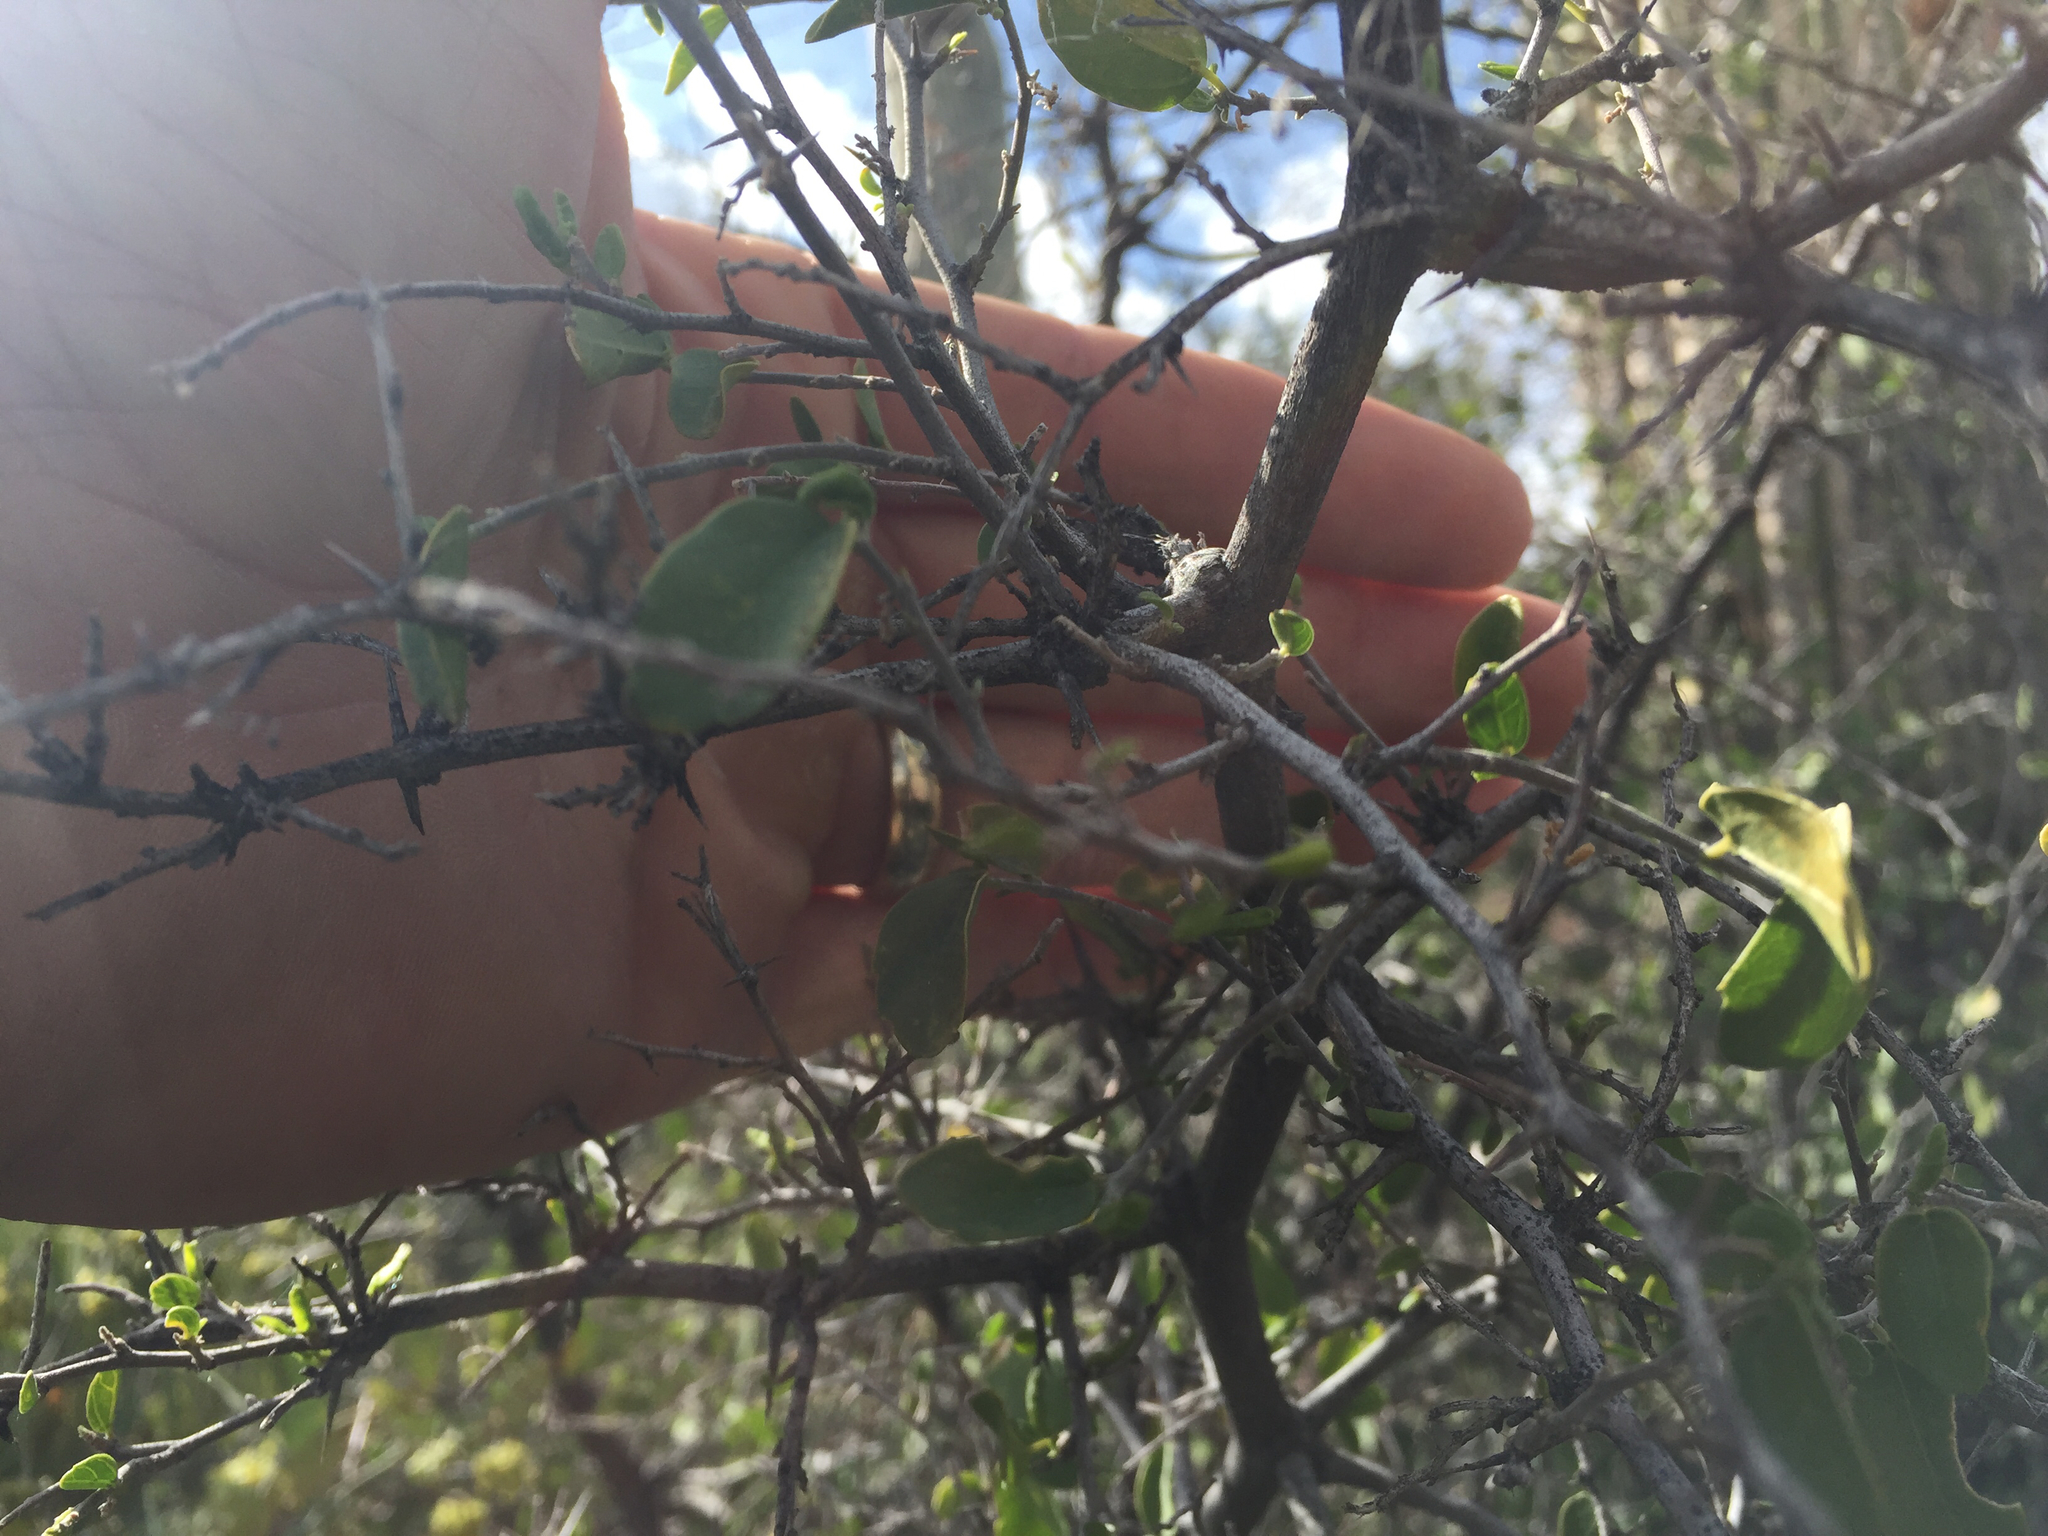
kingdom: Plantae
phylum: Tracheophyta
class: Magnoliopsida
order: Rosales
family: Cannabaceae
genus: Celtis
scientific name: Celtis pallida
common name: Desert hackberry
